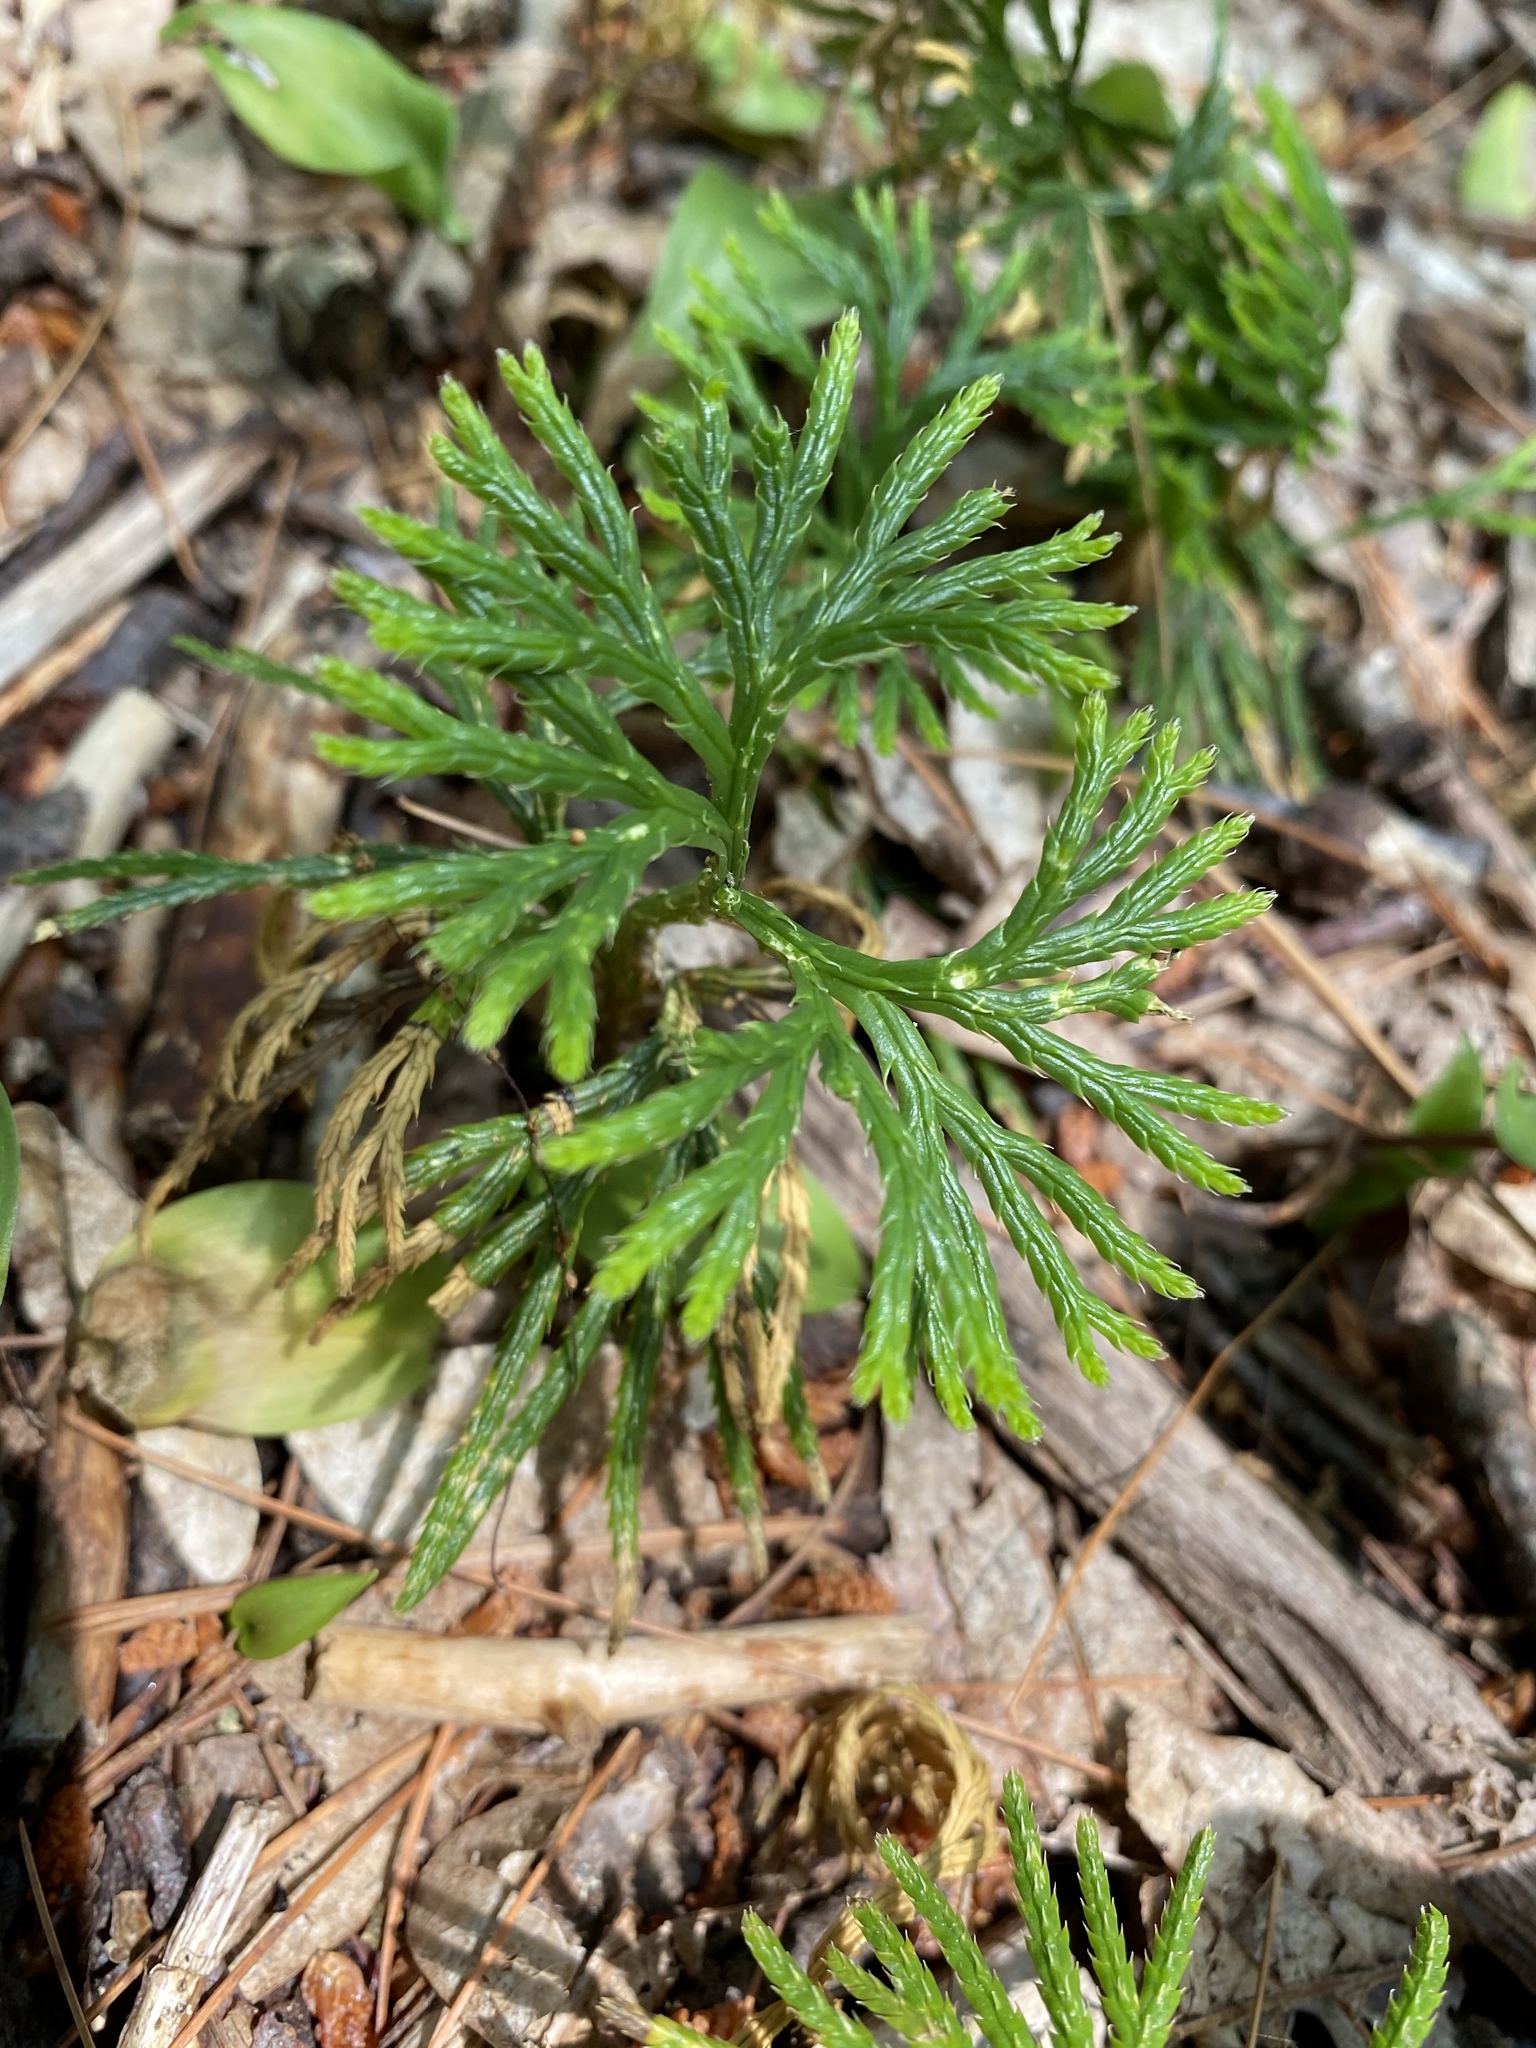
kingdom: Plantae
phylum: Tracheophyta
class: Lycopodiopsida
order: Lycopodiales
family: Lycopodiaceae
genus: Diphasiastrum
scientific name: Diphasiastrum digitatum
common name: Southern running-pine
